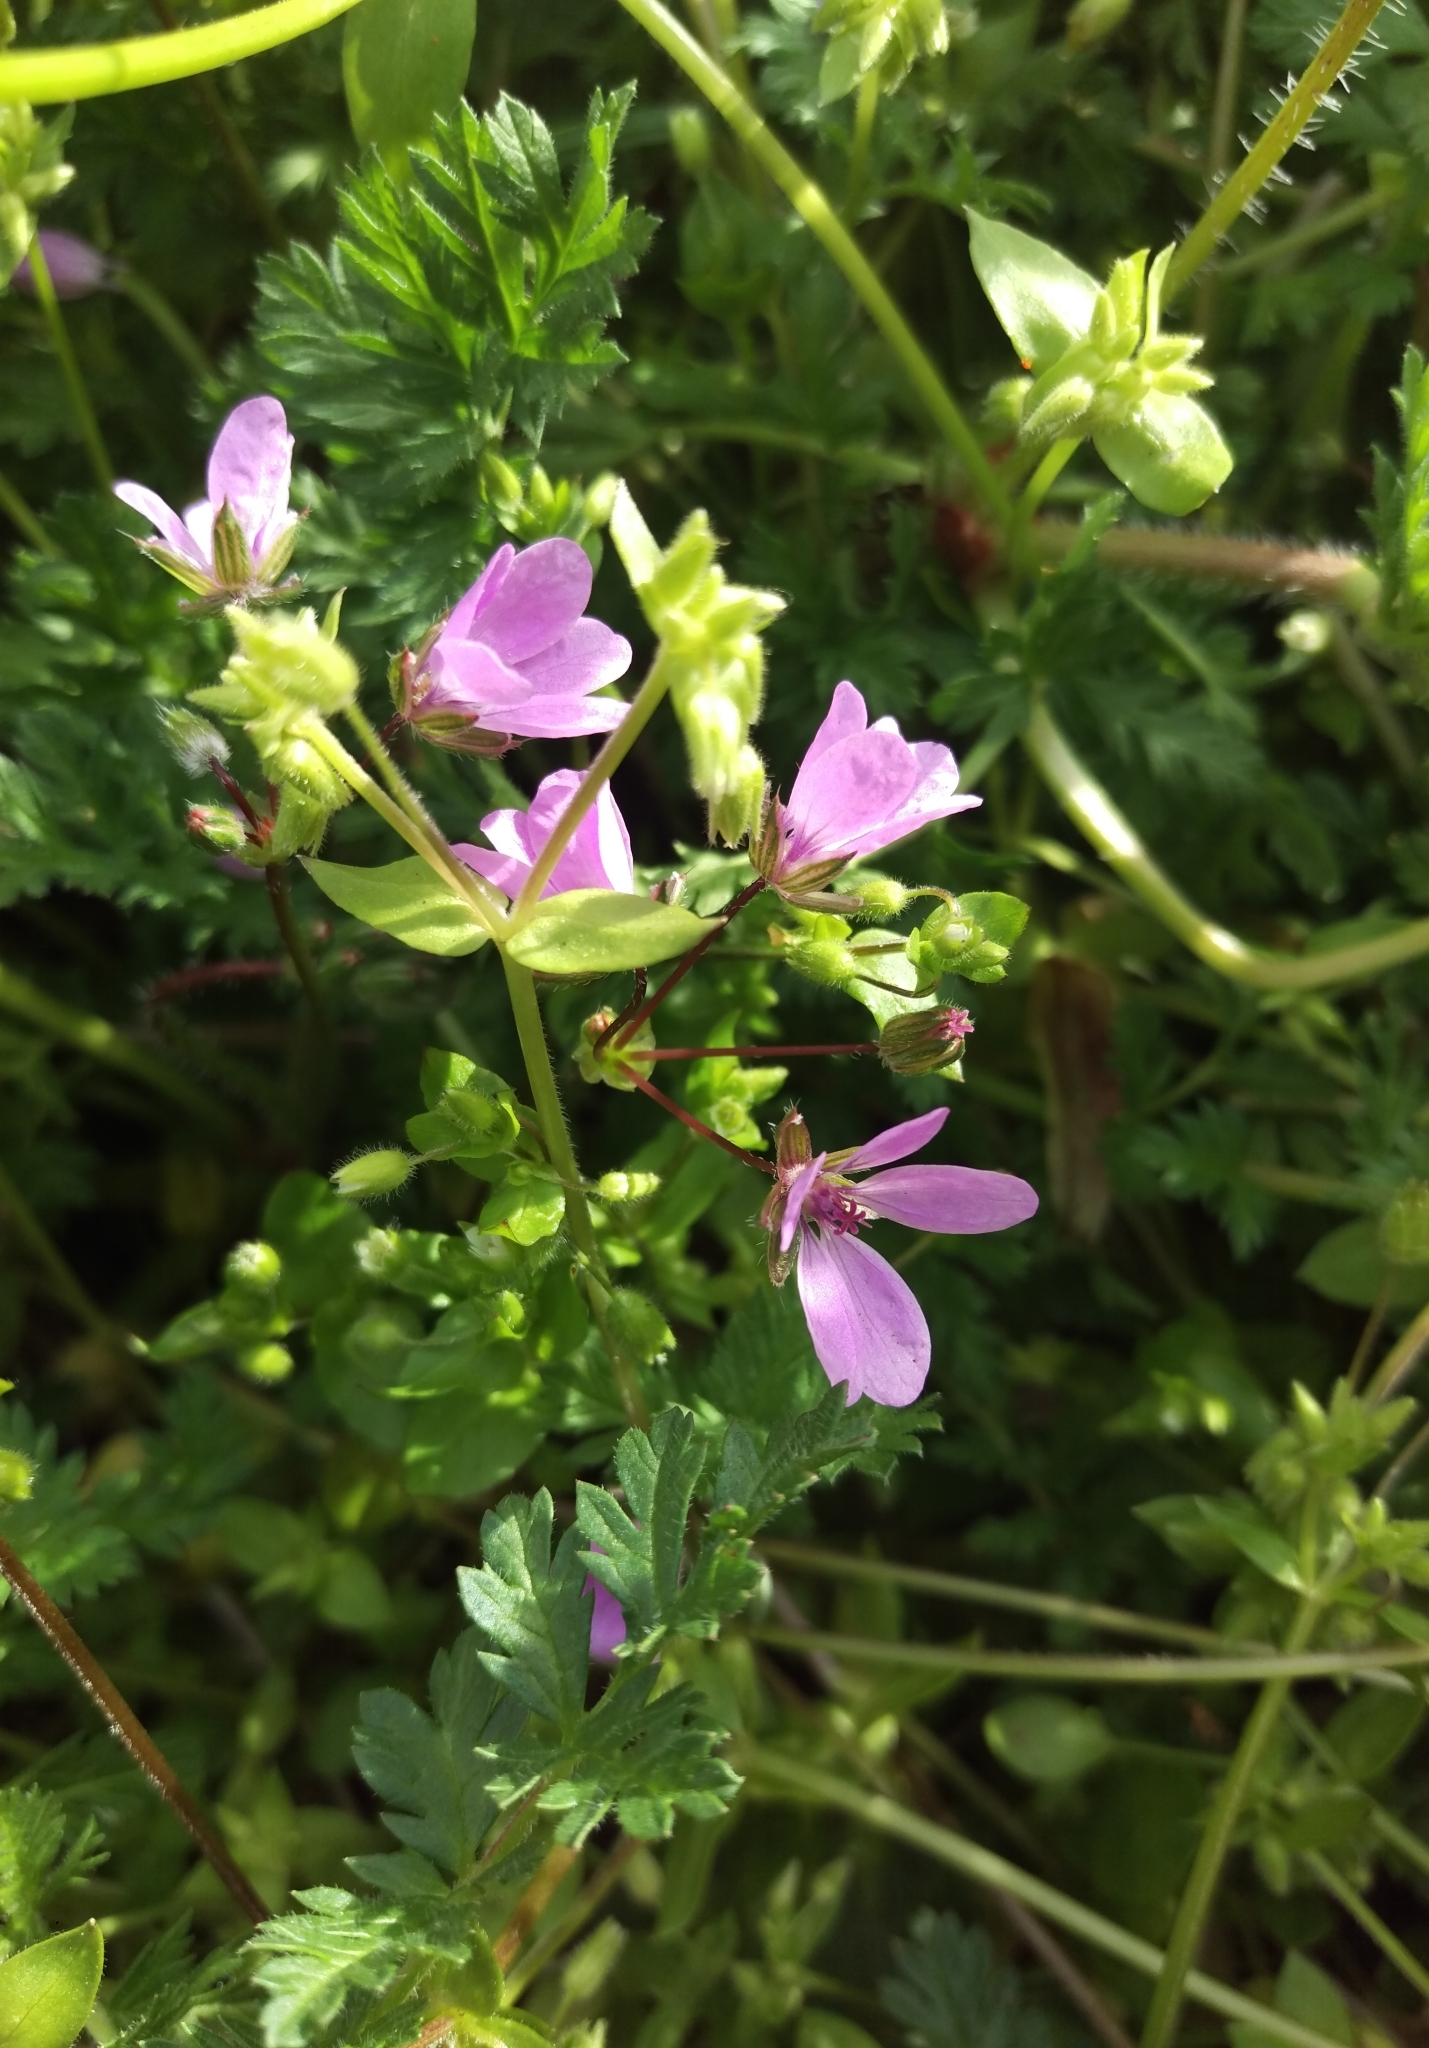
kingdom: Plantae
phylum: Tracheophyta
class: Magnoliopsida
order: Geraniales
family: Geraniaceae
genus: Erodium
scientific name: Erodium cicutarium
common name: Common stork's-bill
